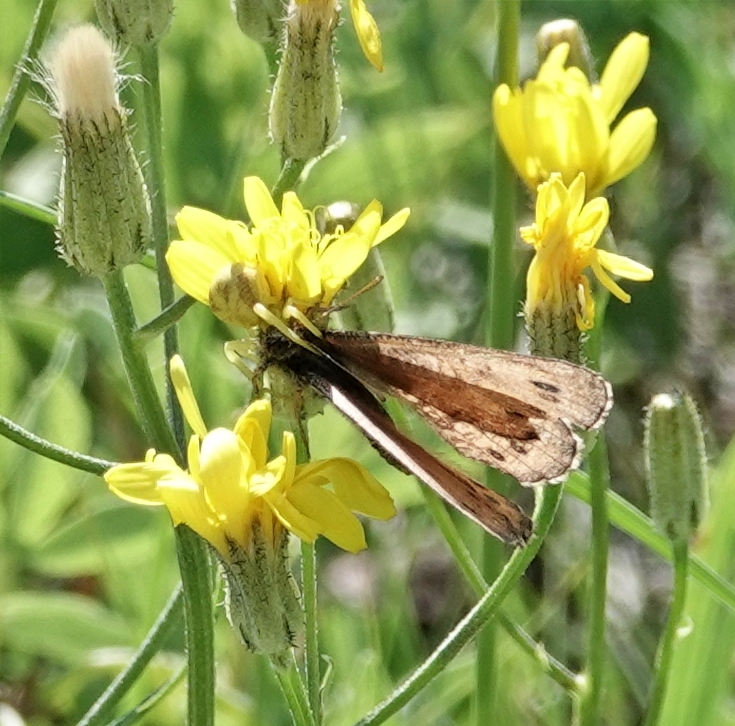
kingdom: Animalia
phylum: Arthropoda
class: Insecta
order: Lepidoptera
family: Nymphalidae
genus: Oeneis
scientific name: Oeneis uhleri
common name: Uhler's arctic
